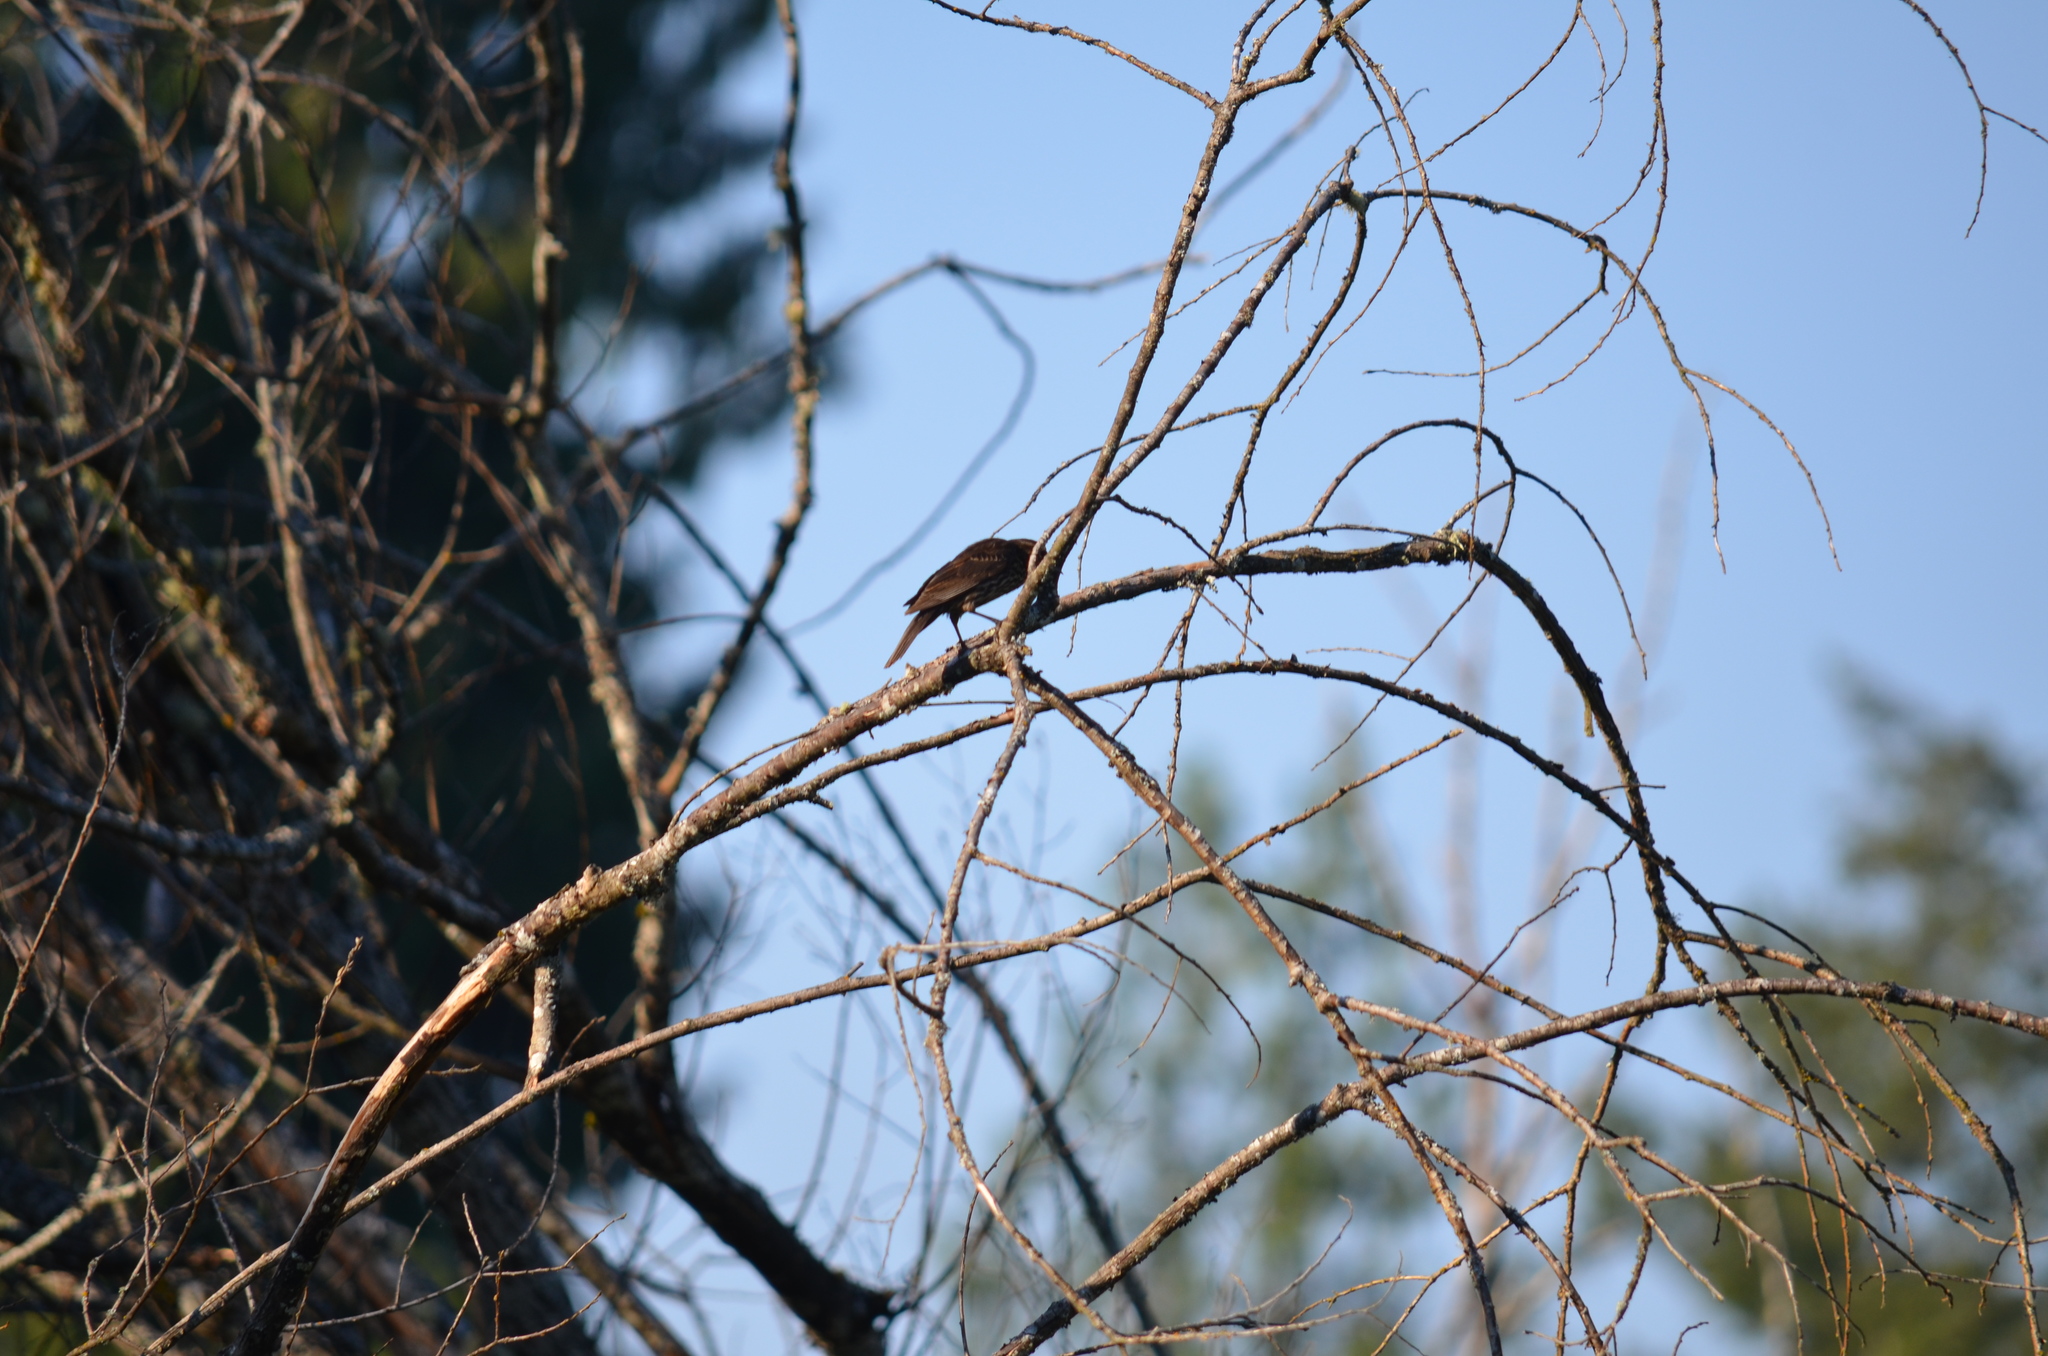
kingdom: Animalia
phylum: Chordata
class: Aves
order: Passeriformes
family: Icteridae
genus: Agelaius
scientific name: Agelaius phoeniceus
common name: Red-winged blackbird
